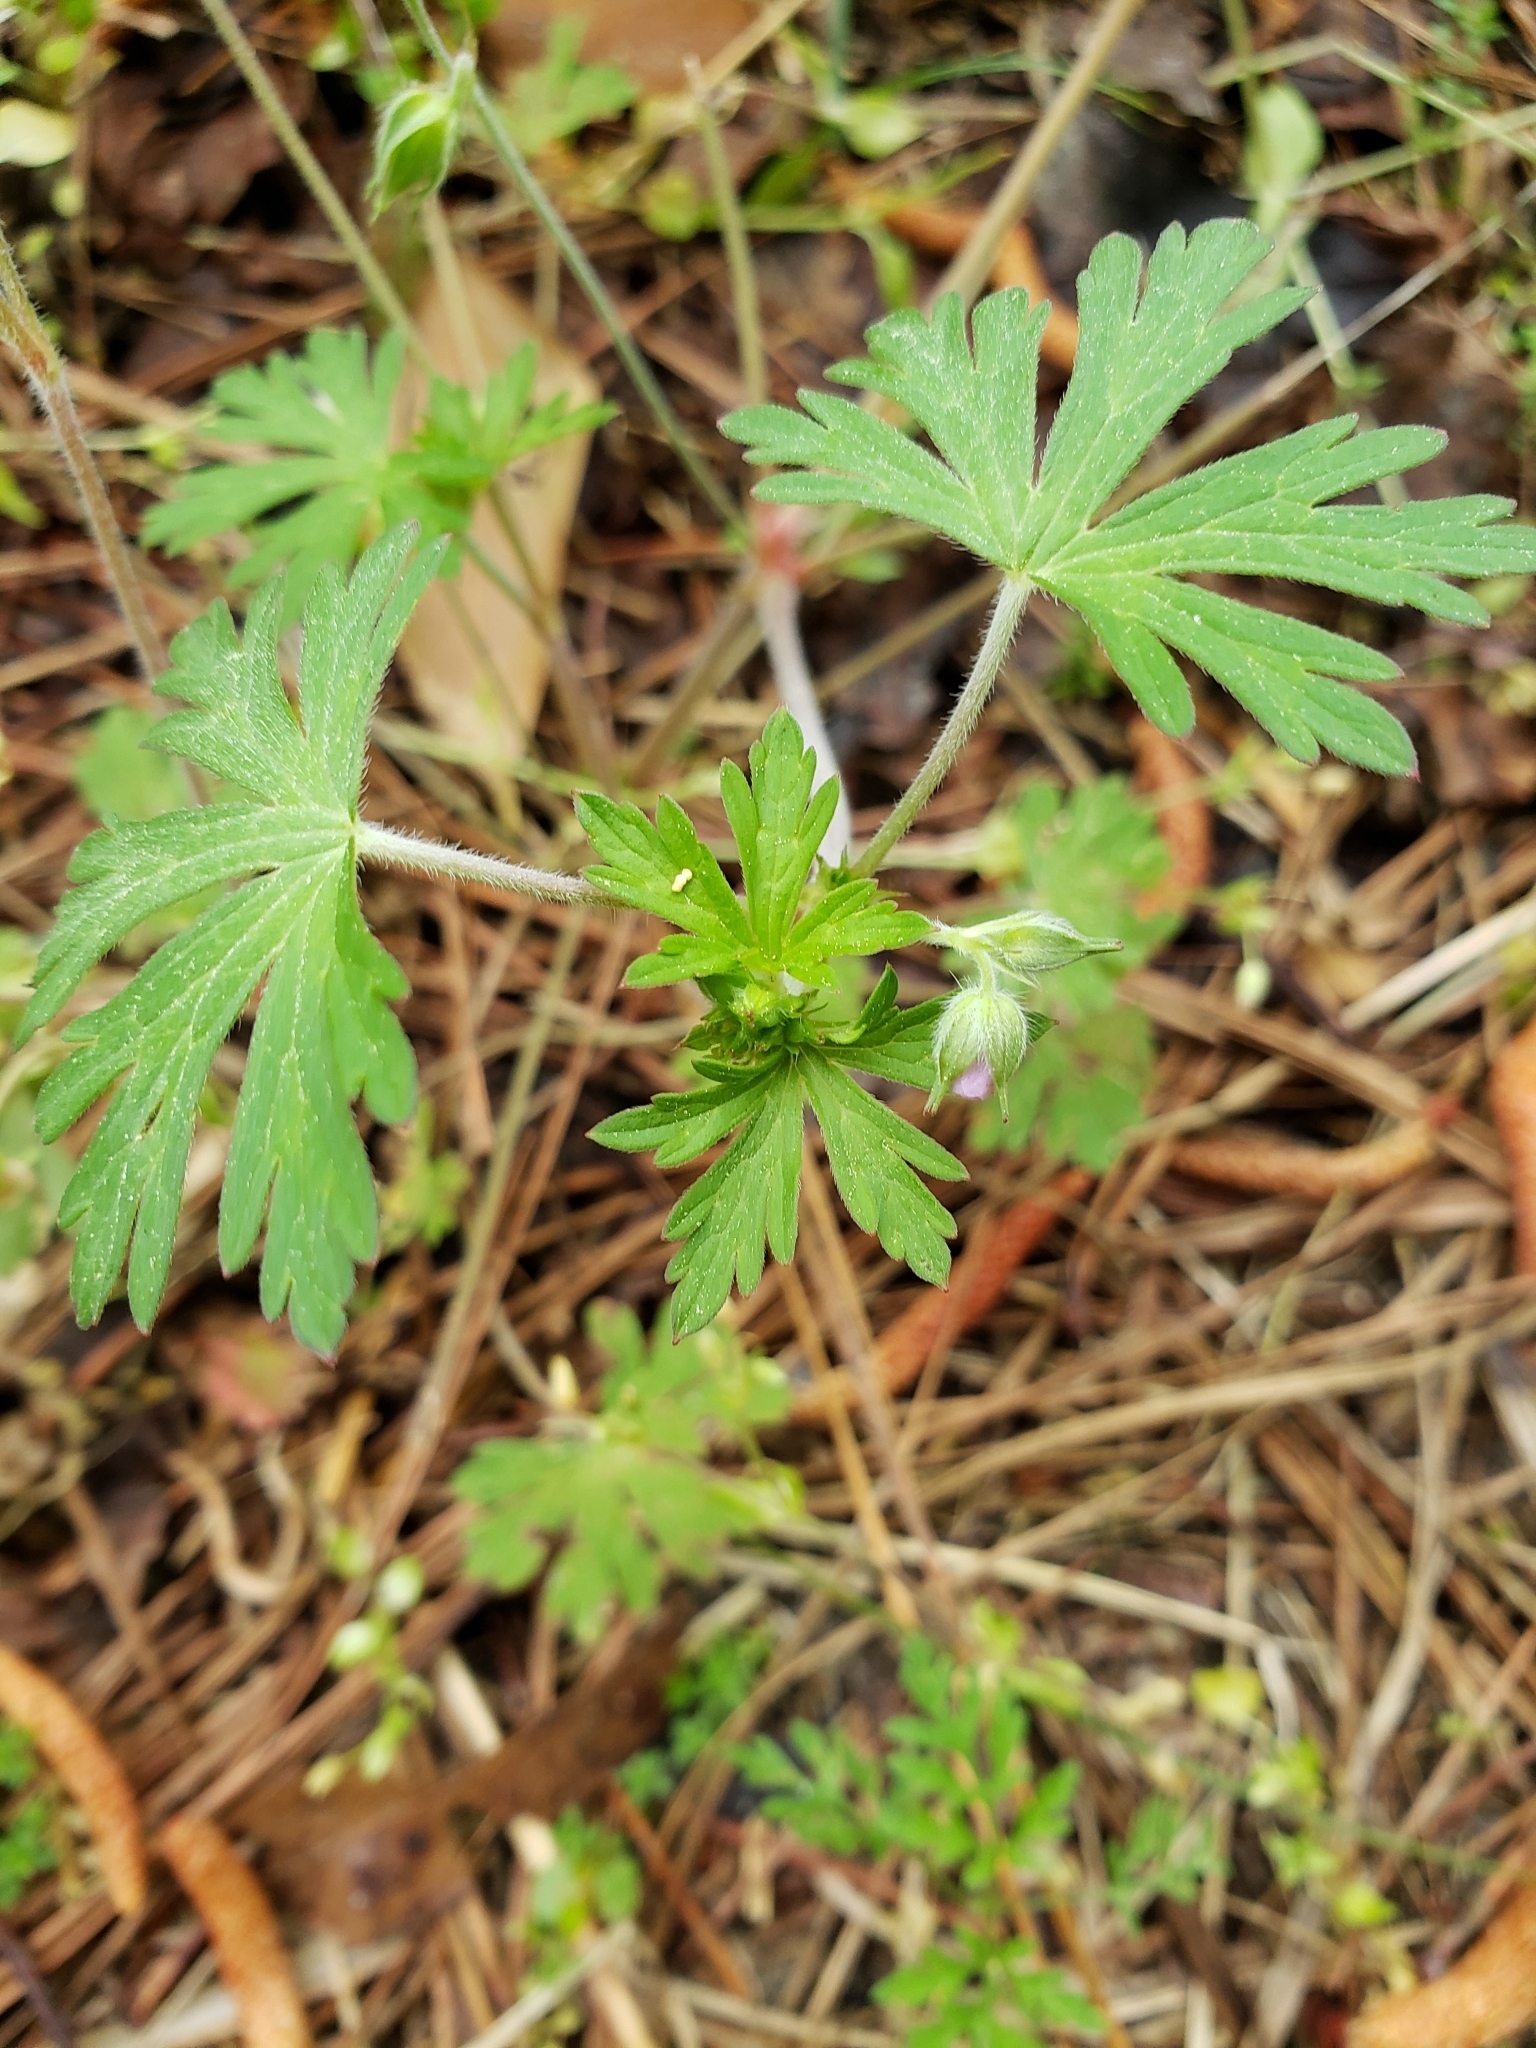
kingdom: Plantae
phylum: Tracheophyta
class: Magnoliopsida
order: Geraniales
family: Geraniaceae
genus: Geranium
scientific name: Geranium carolinianum
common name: Carolina crane's-bill
